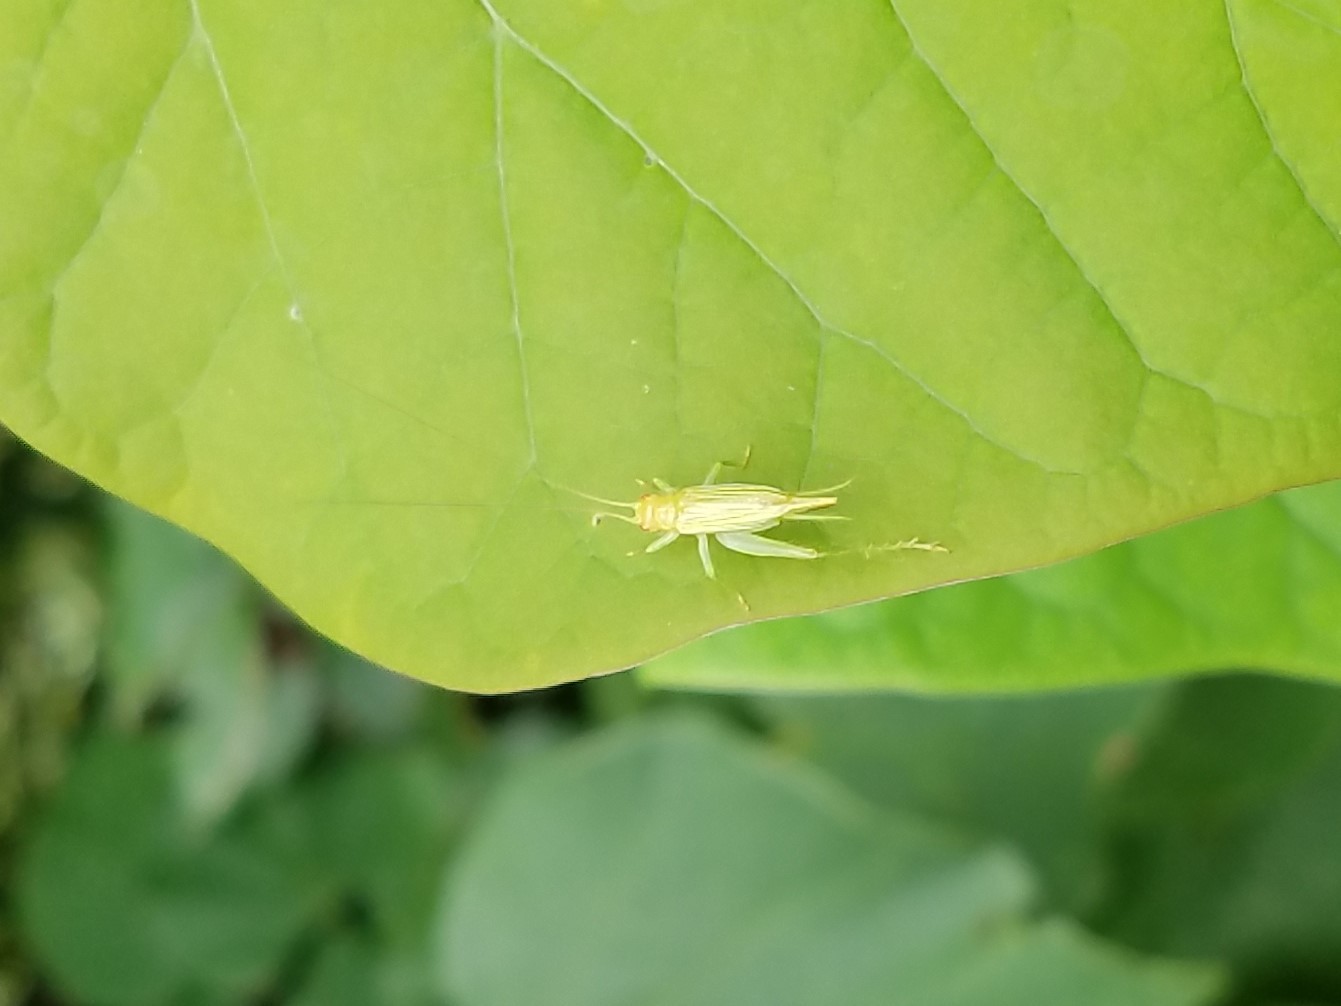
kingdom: Animalia
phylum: Arthropoda
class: Insecta
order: Orthoptera
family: Trigonidiidae
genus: Cyrtoxipha
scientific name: Cyrtoxipha columbiana
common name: Columbian trig
